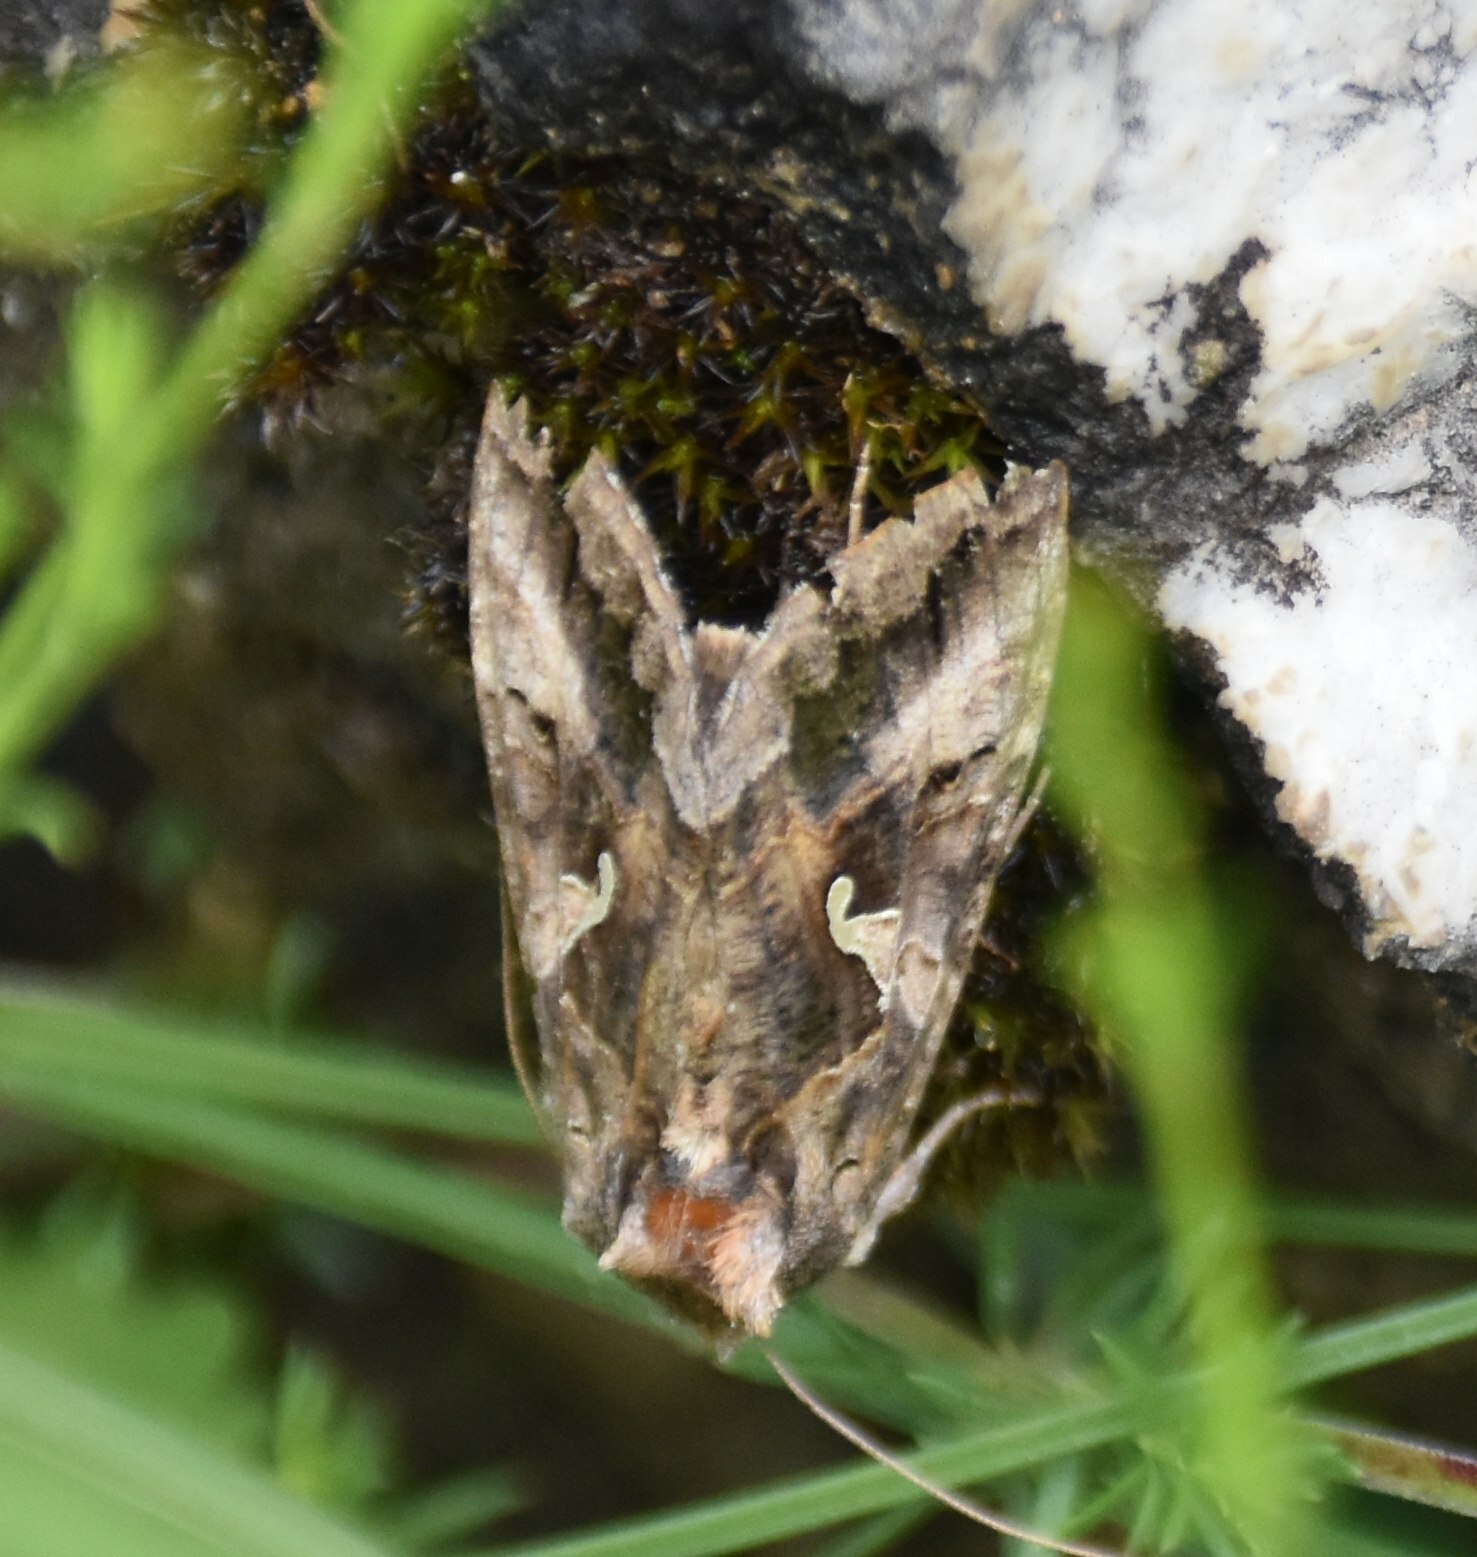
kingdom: Animalia
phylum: Arthropoda
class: Insecta
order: Lepidoptera
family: Noctuidae
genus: Autographa
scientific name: Autographa gamma
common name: Silver y
